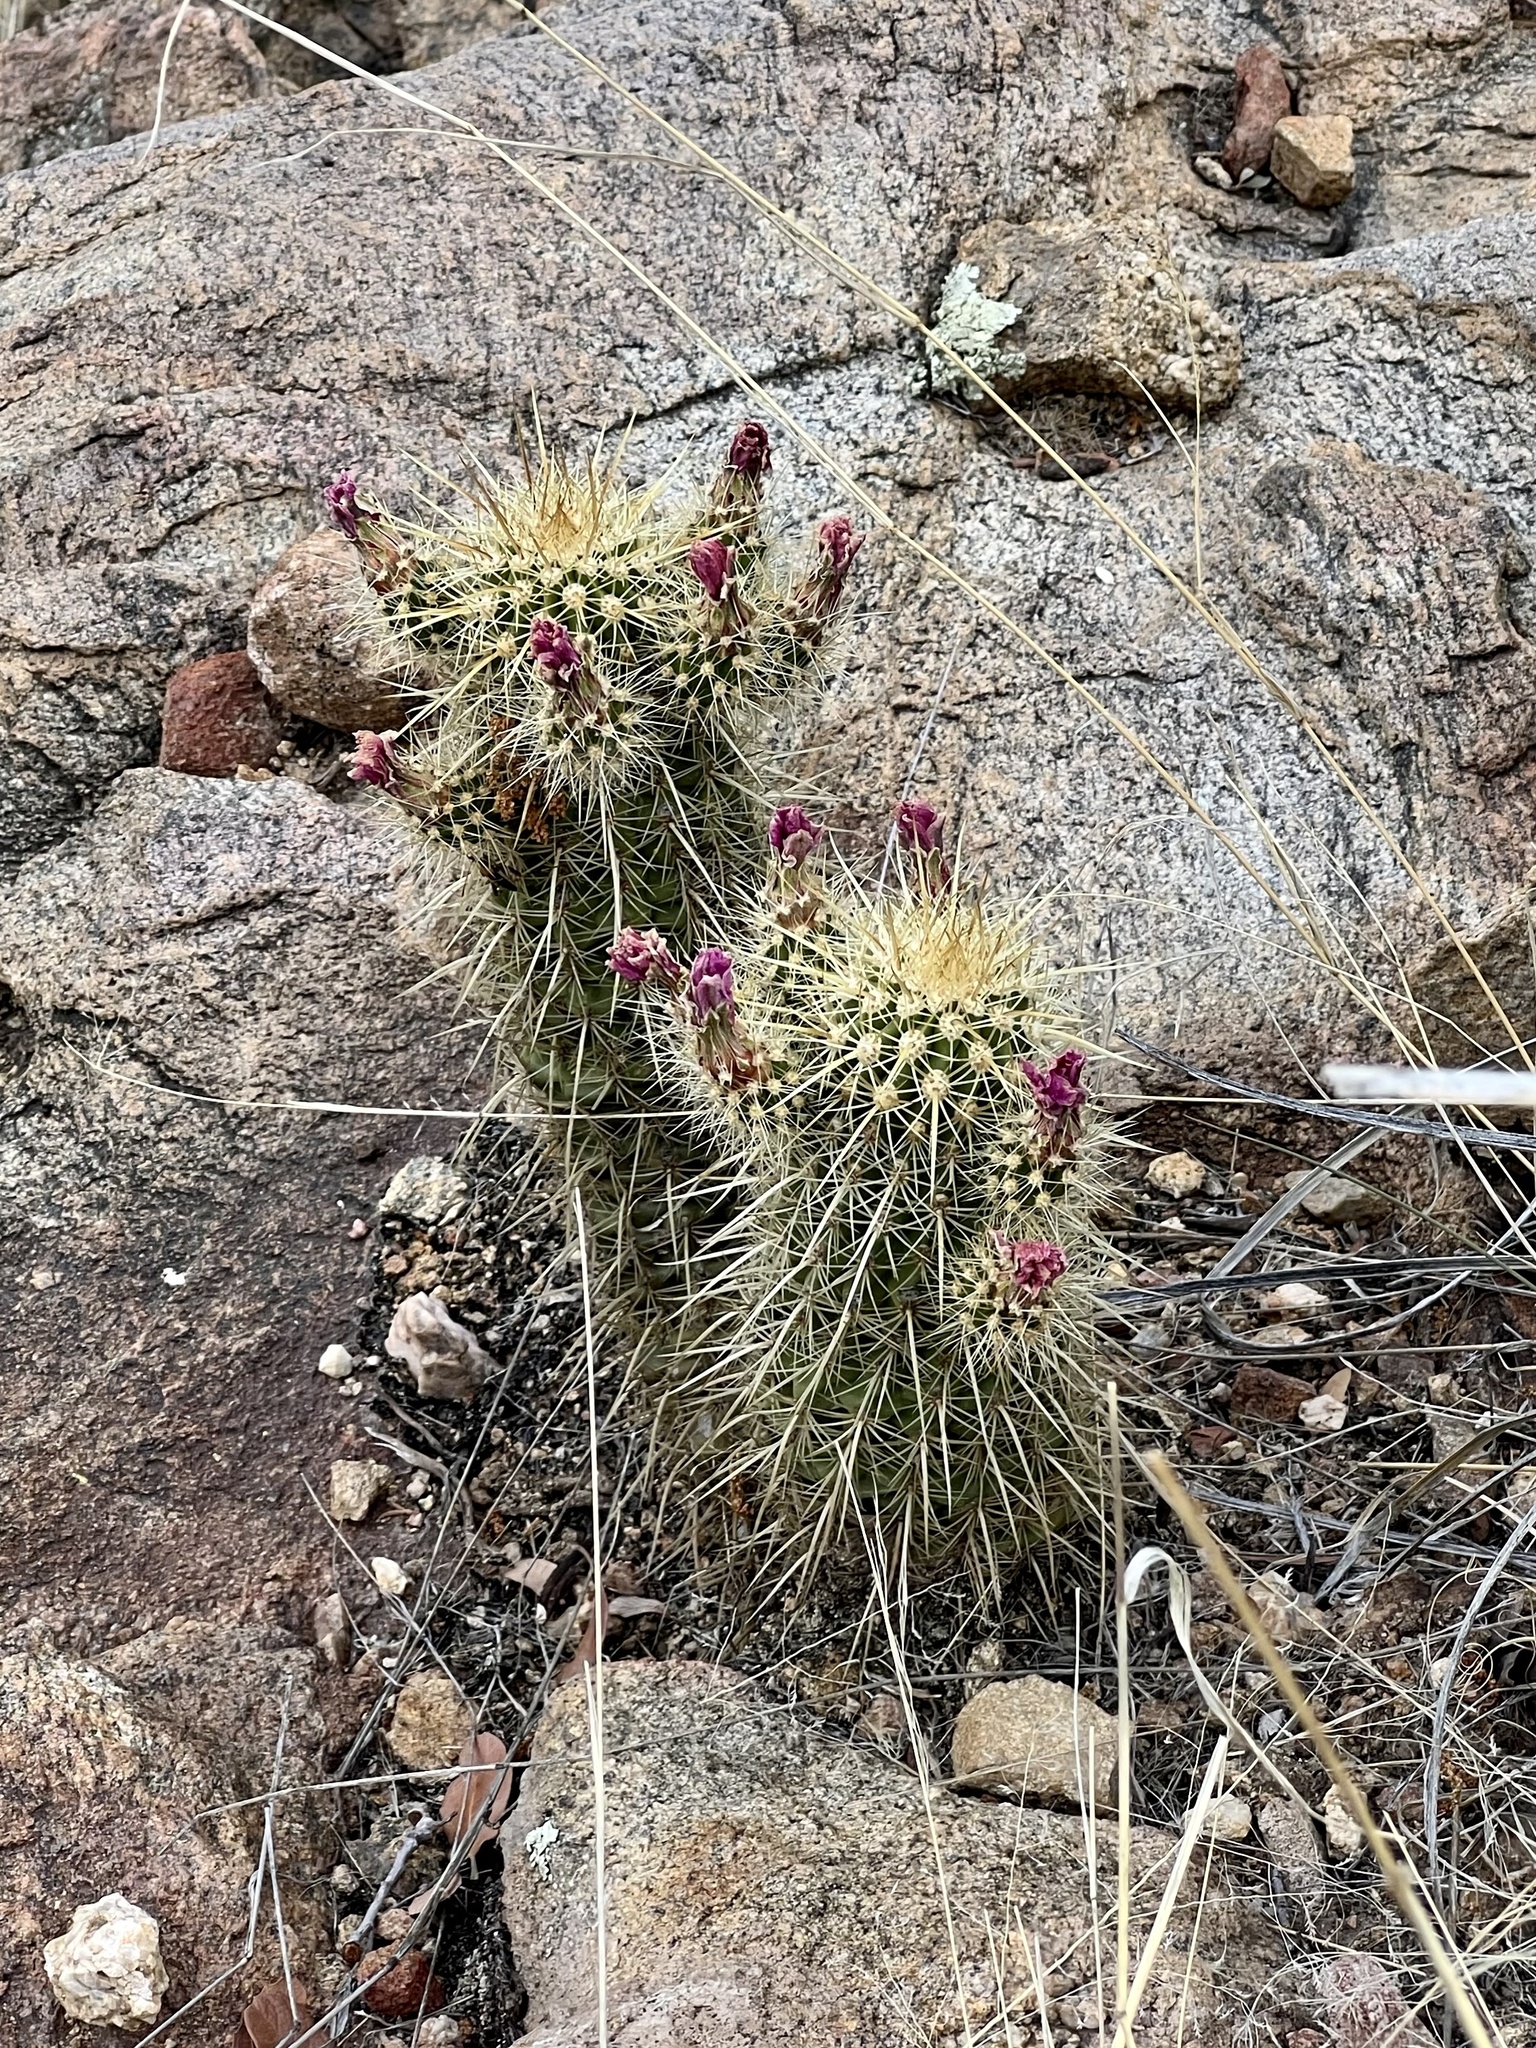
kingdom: Plantae
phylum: Tracheophyta
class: Magnoliopsida
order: Caryophyllales
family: Cactaceae
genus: Echinocereus
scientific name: Echinocereus ledingii
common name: Leding's hedgehog cactus
